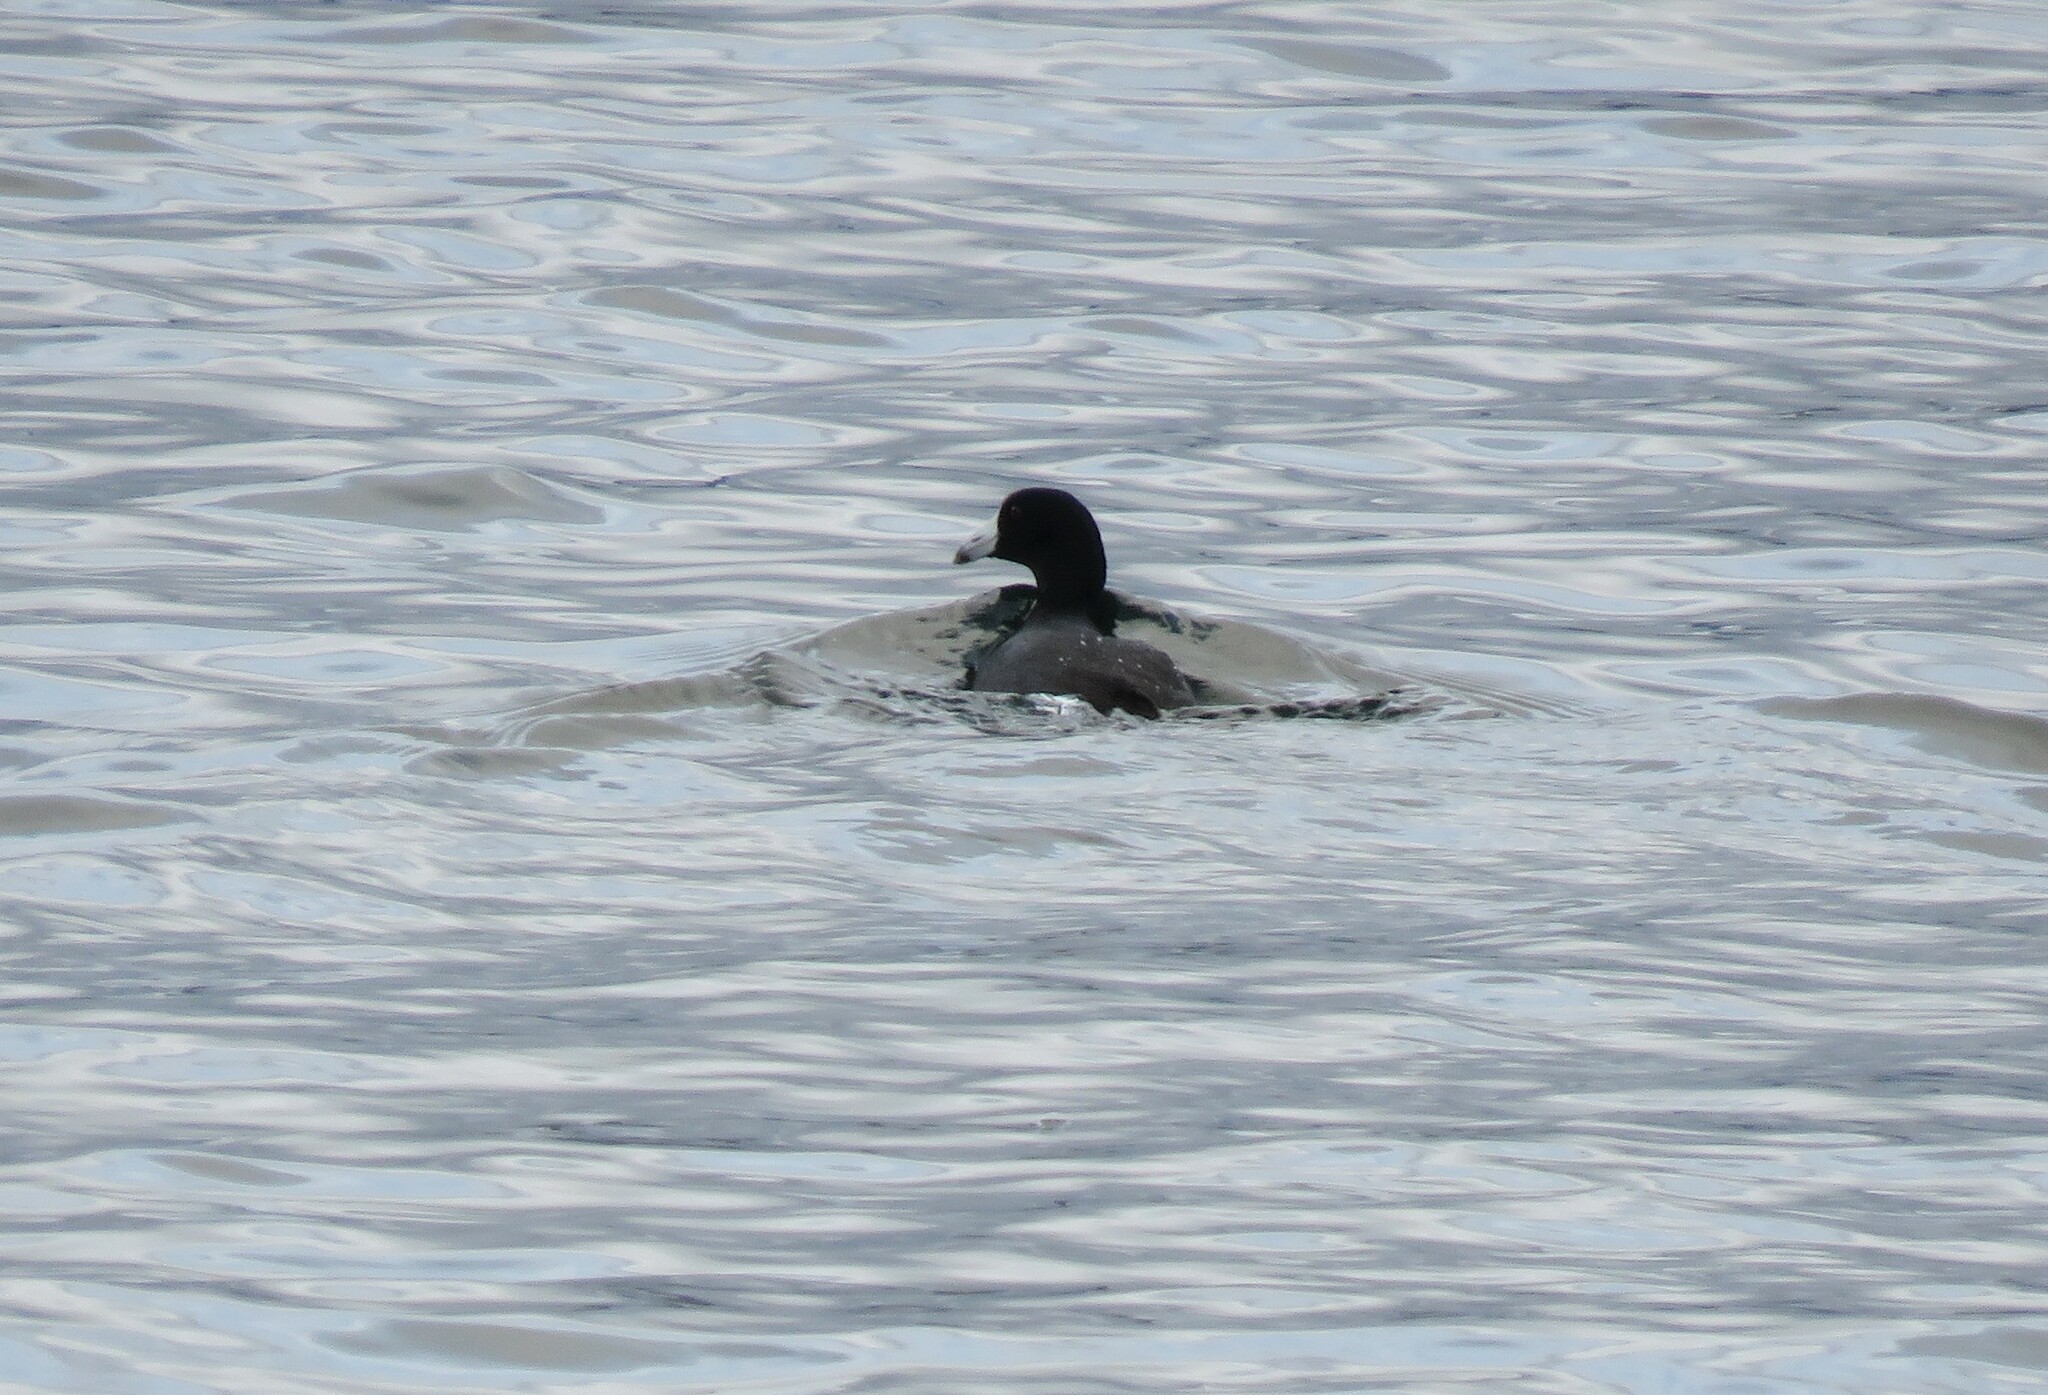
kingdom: Animalia
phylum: Chordata
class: Aves
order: Gruiformes
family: Rallidae
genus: Fulica
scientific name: Fulica americana
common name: American coot
